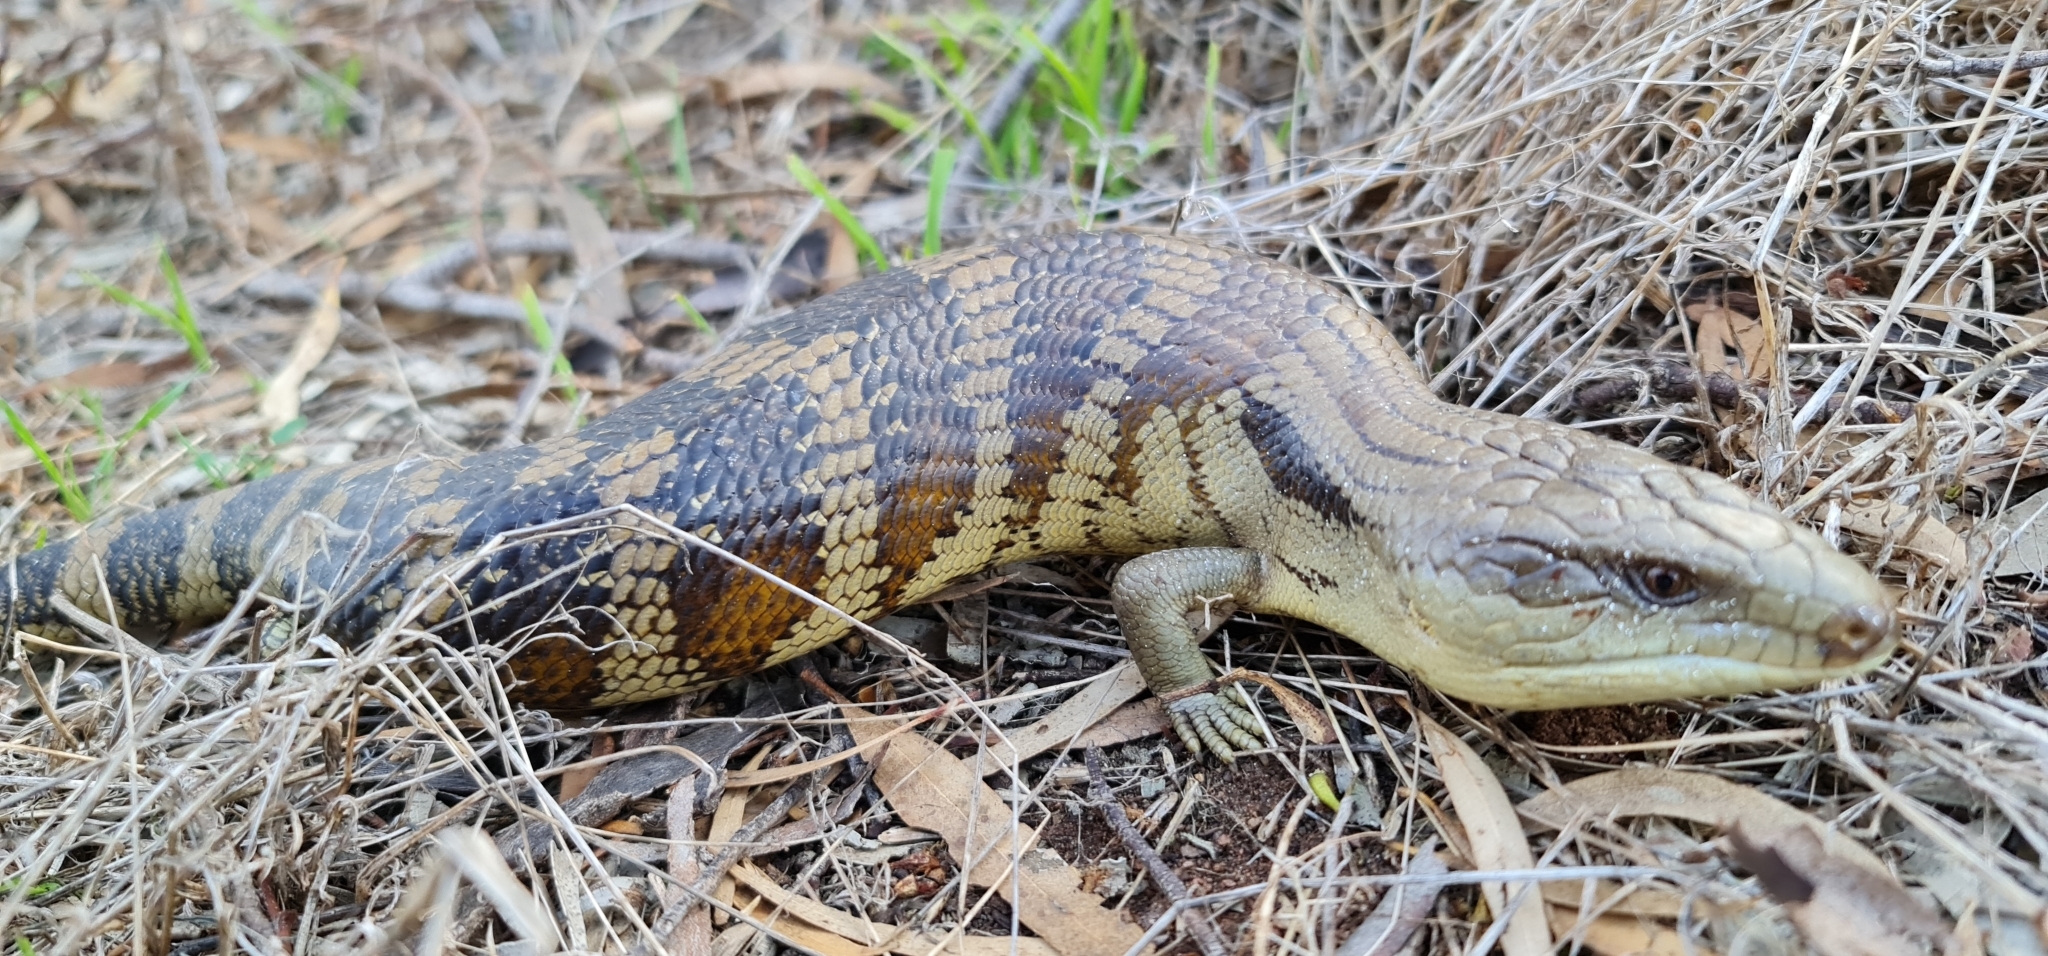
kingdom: Animalia
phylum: Chordata
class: Squamata
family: Scincidae
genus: Tiliqua
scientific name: Tiliqua scincoides
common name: Common bluetongue
